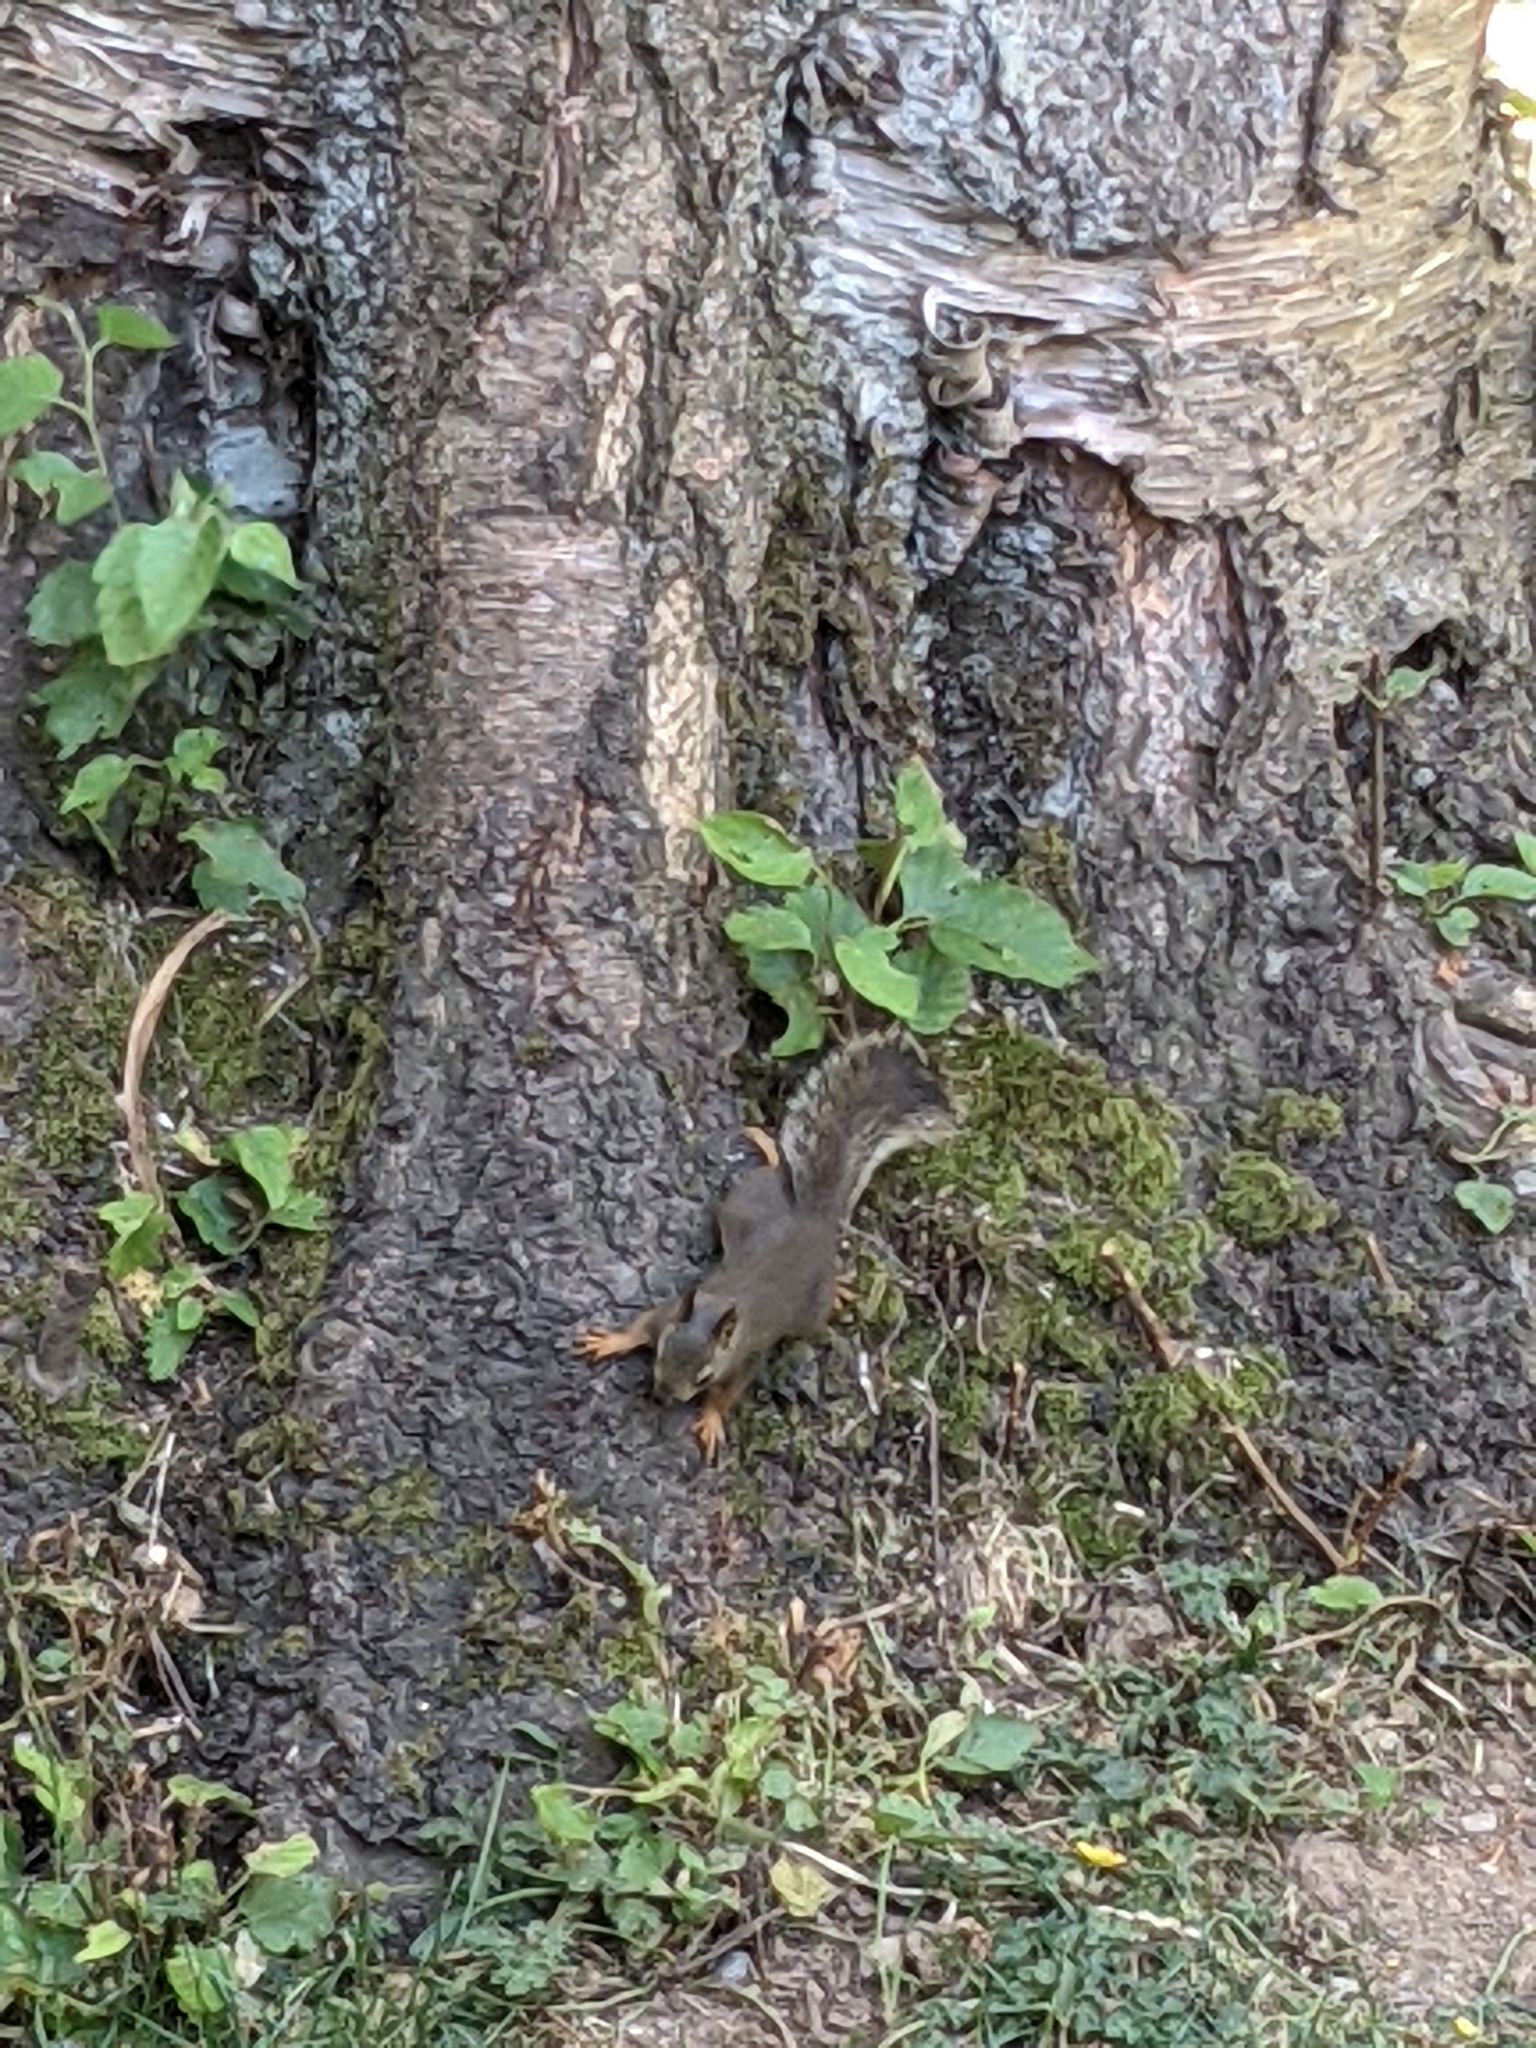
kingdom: Animalia
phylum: Chordata
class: Mammalia
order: Rodentia
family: Sciuridae
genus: Tamiasciurus
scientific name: Tamiasciurus douglasii
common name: Douglas's squirrel
